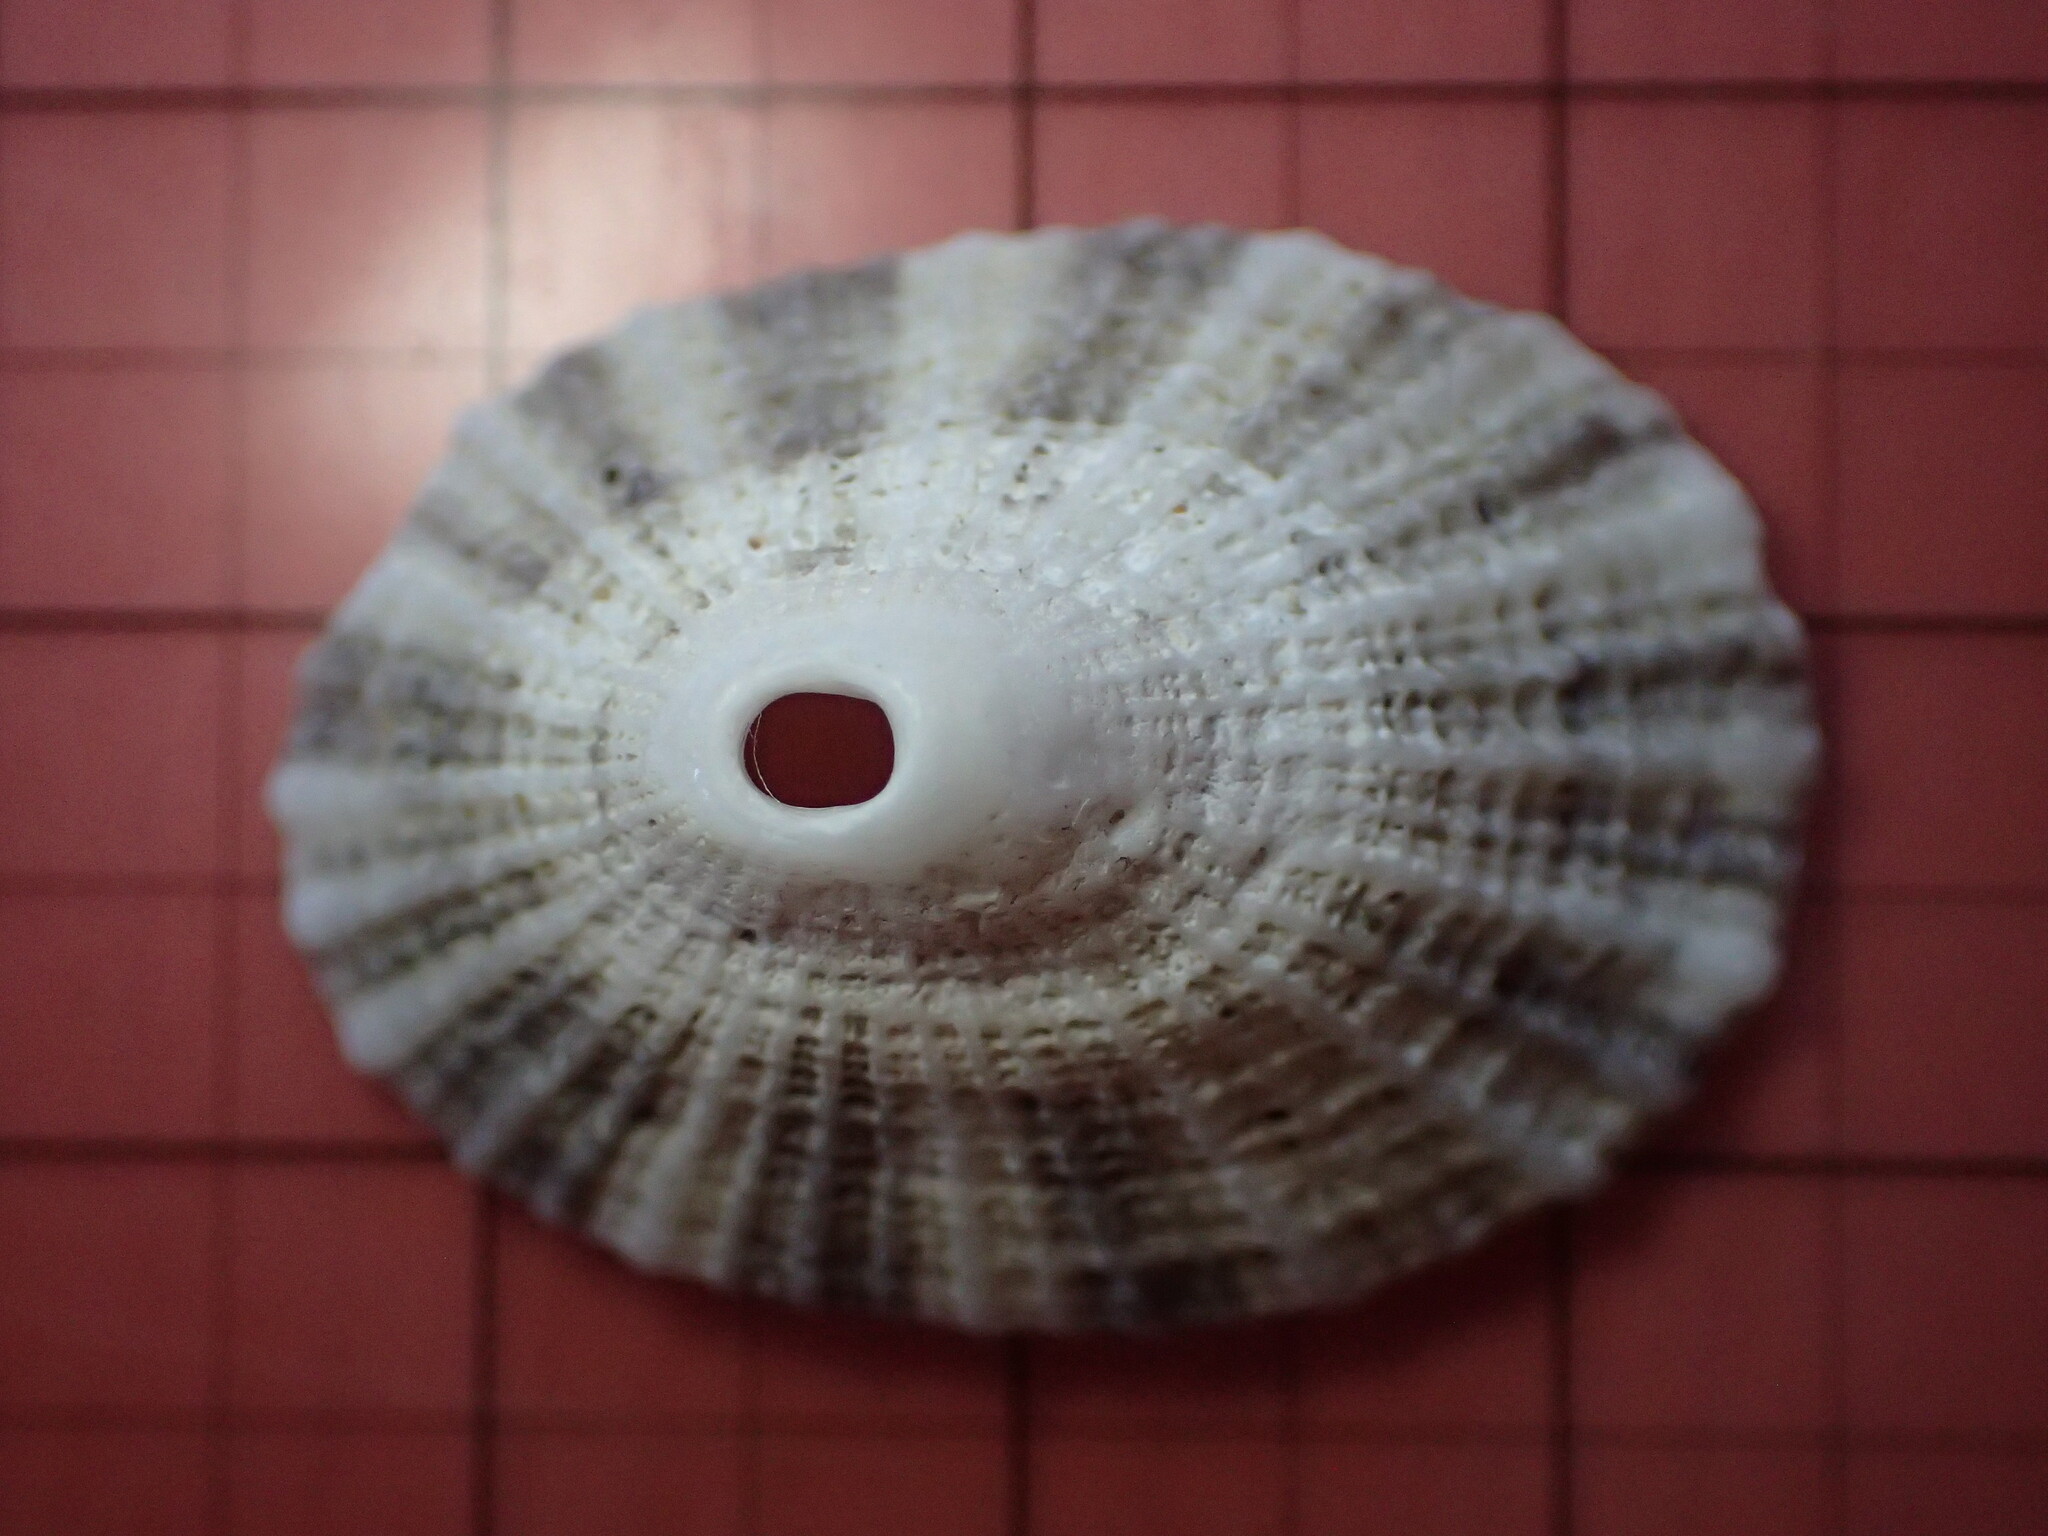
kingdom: Animalia
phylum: Mollusca
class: Gastropoda
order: Lepetellida
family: Fissurellidae
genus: Diodora
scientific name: Diodora aspera
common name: Rough keyhole limpet
